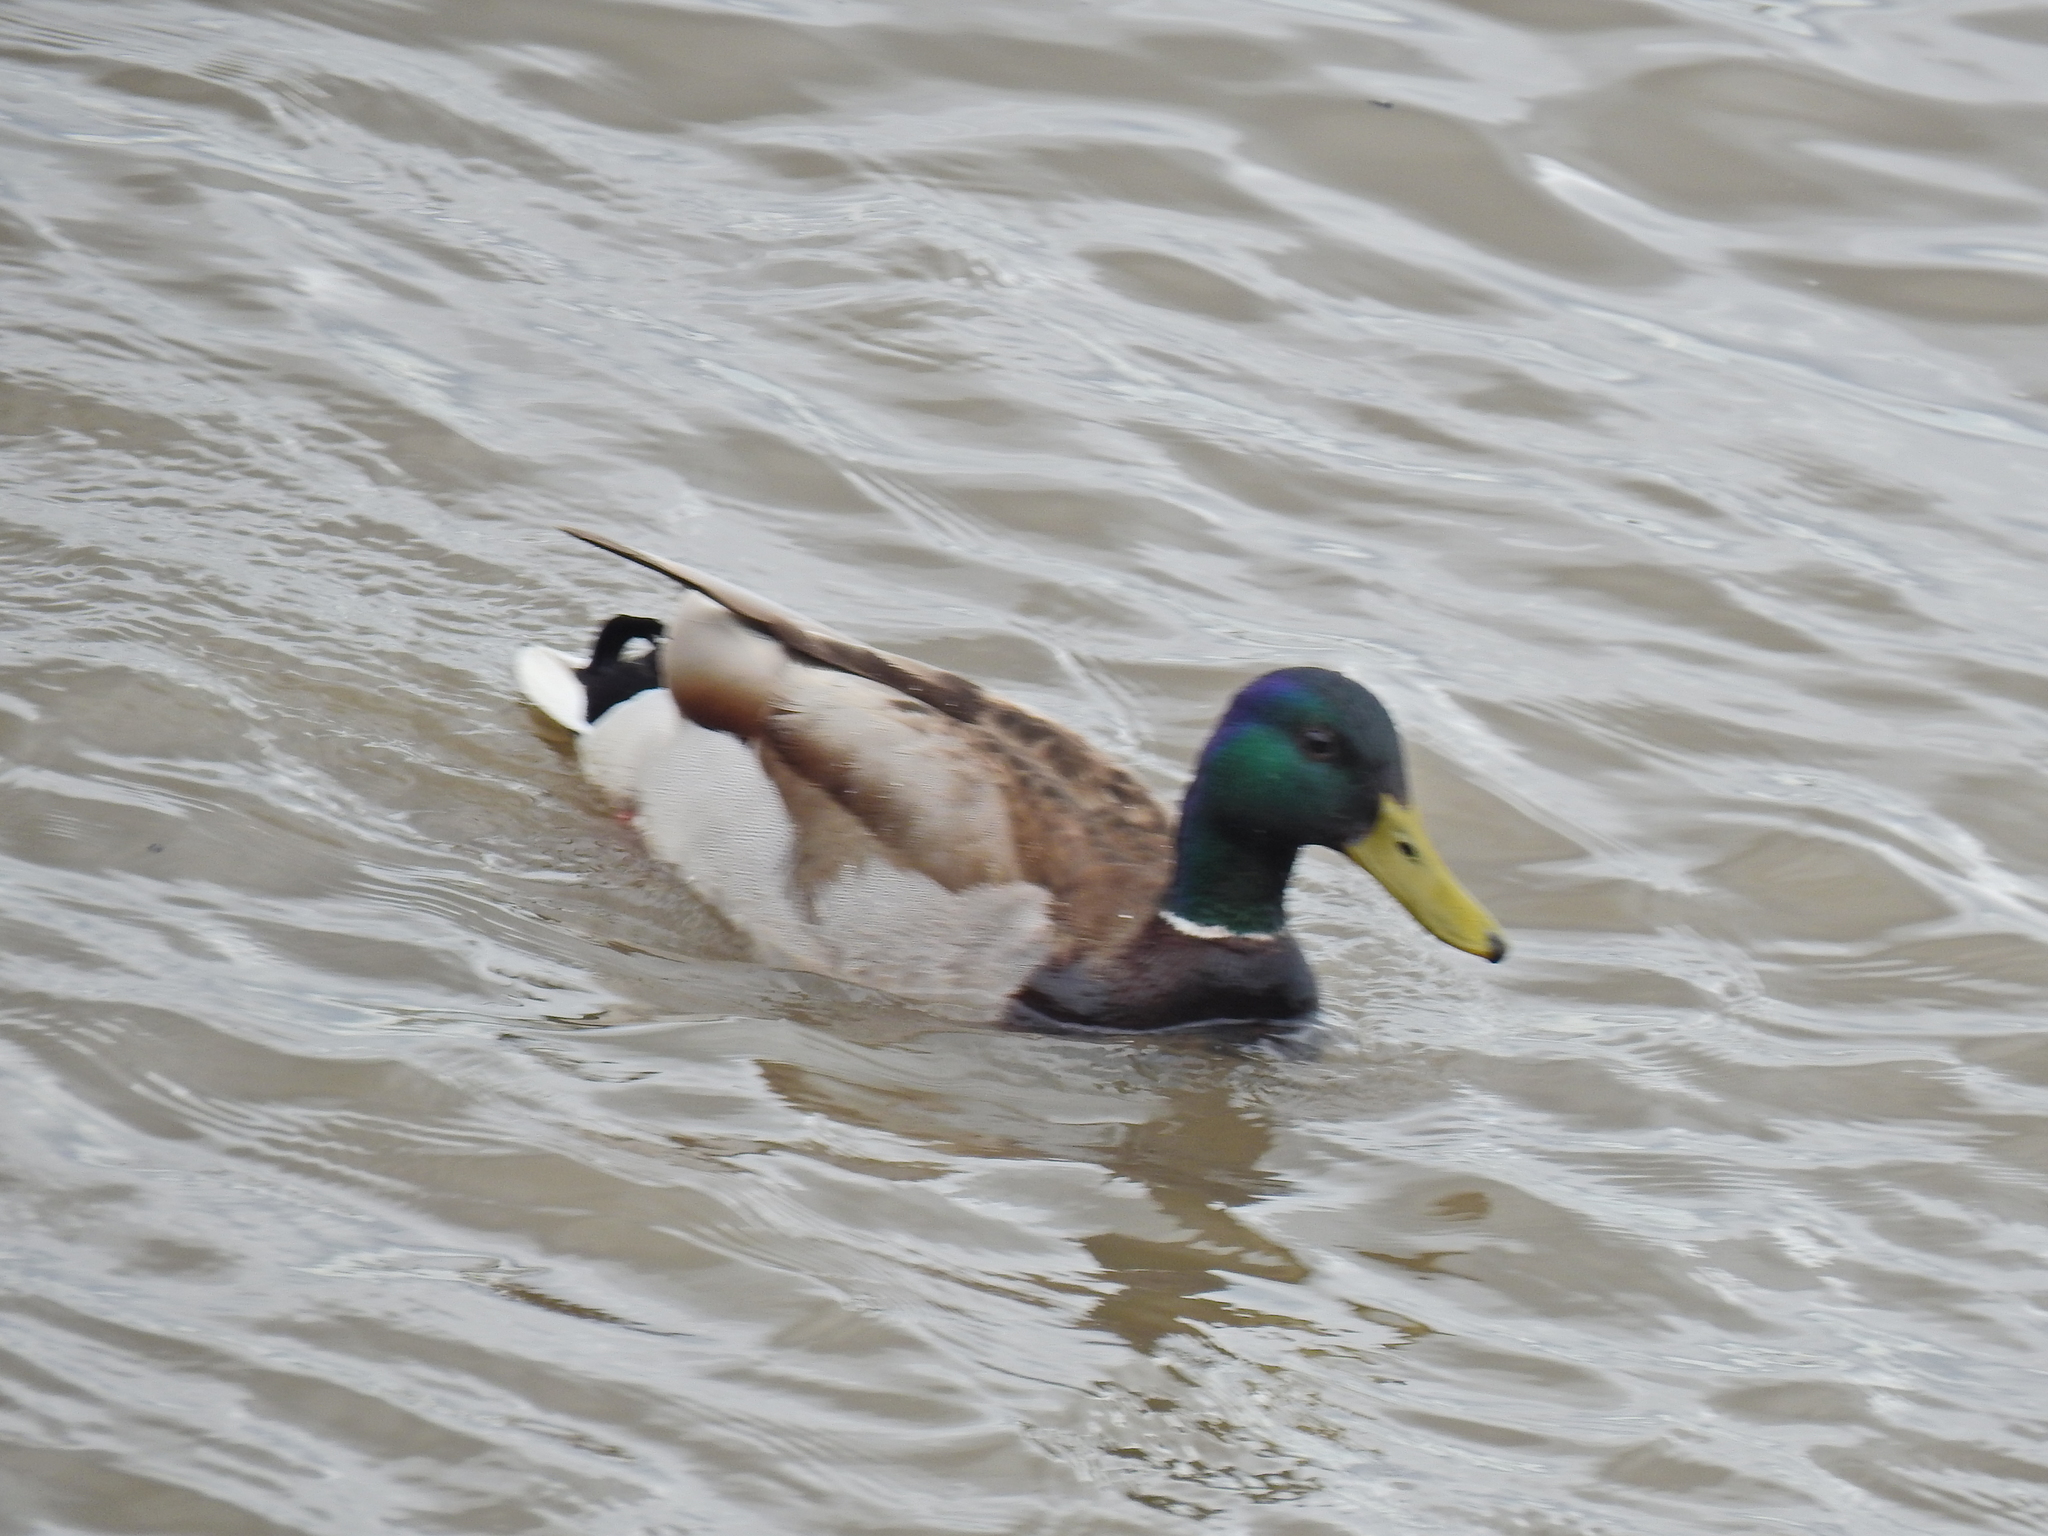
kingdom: Animalia
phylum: Chordata
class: Aves
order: Anseriformes
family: Anatidae
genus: Anas
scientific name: Anas platyrhynchos
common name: Mallard
